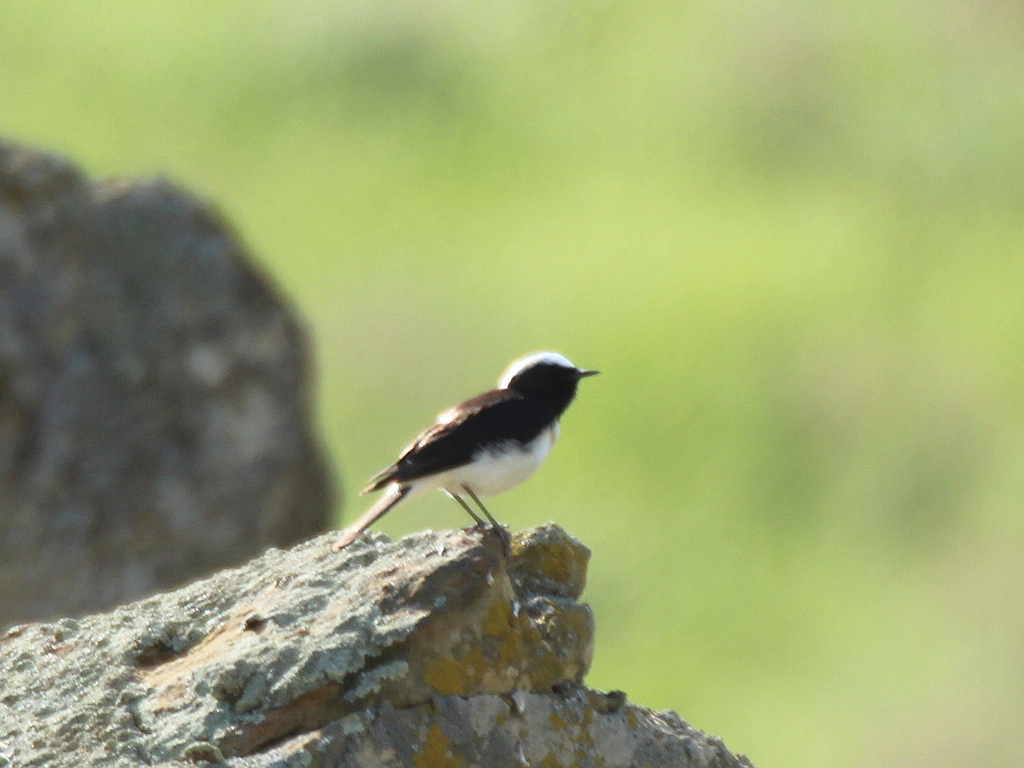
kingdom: Animalia
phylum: Chordata
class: Aves
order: Passeriformes
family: Muscicapidae
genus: Oenanthe
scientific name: Oenanthe pleschanka
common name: Pied wheatear
